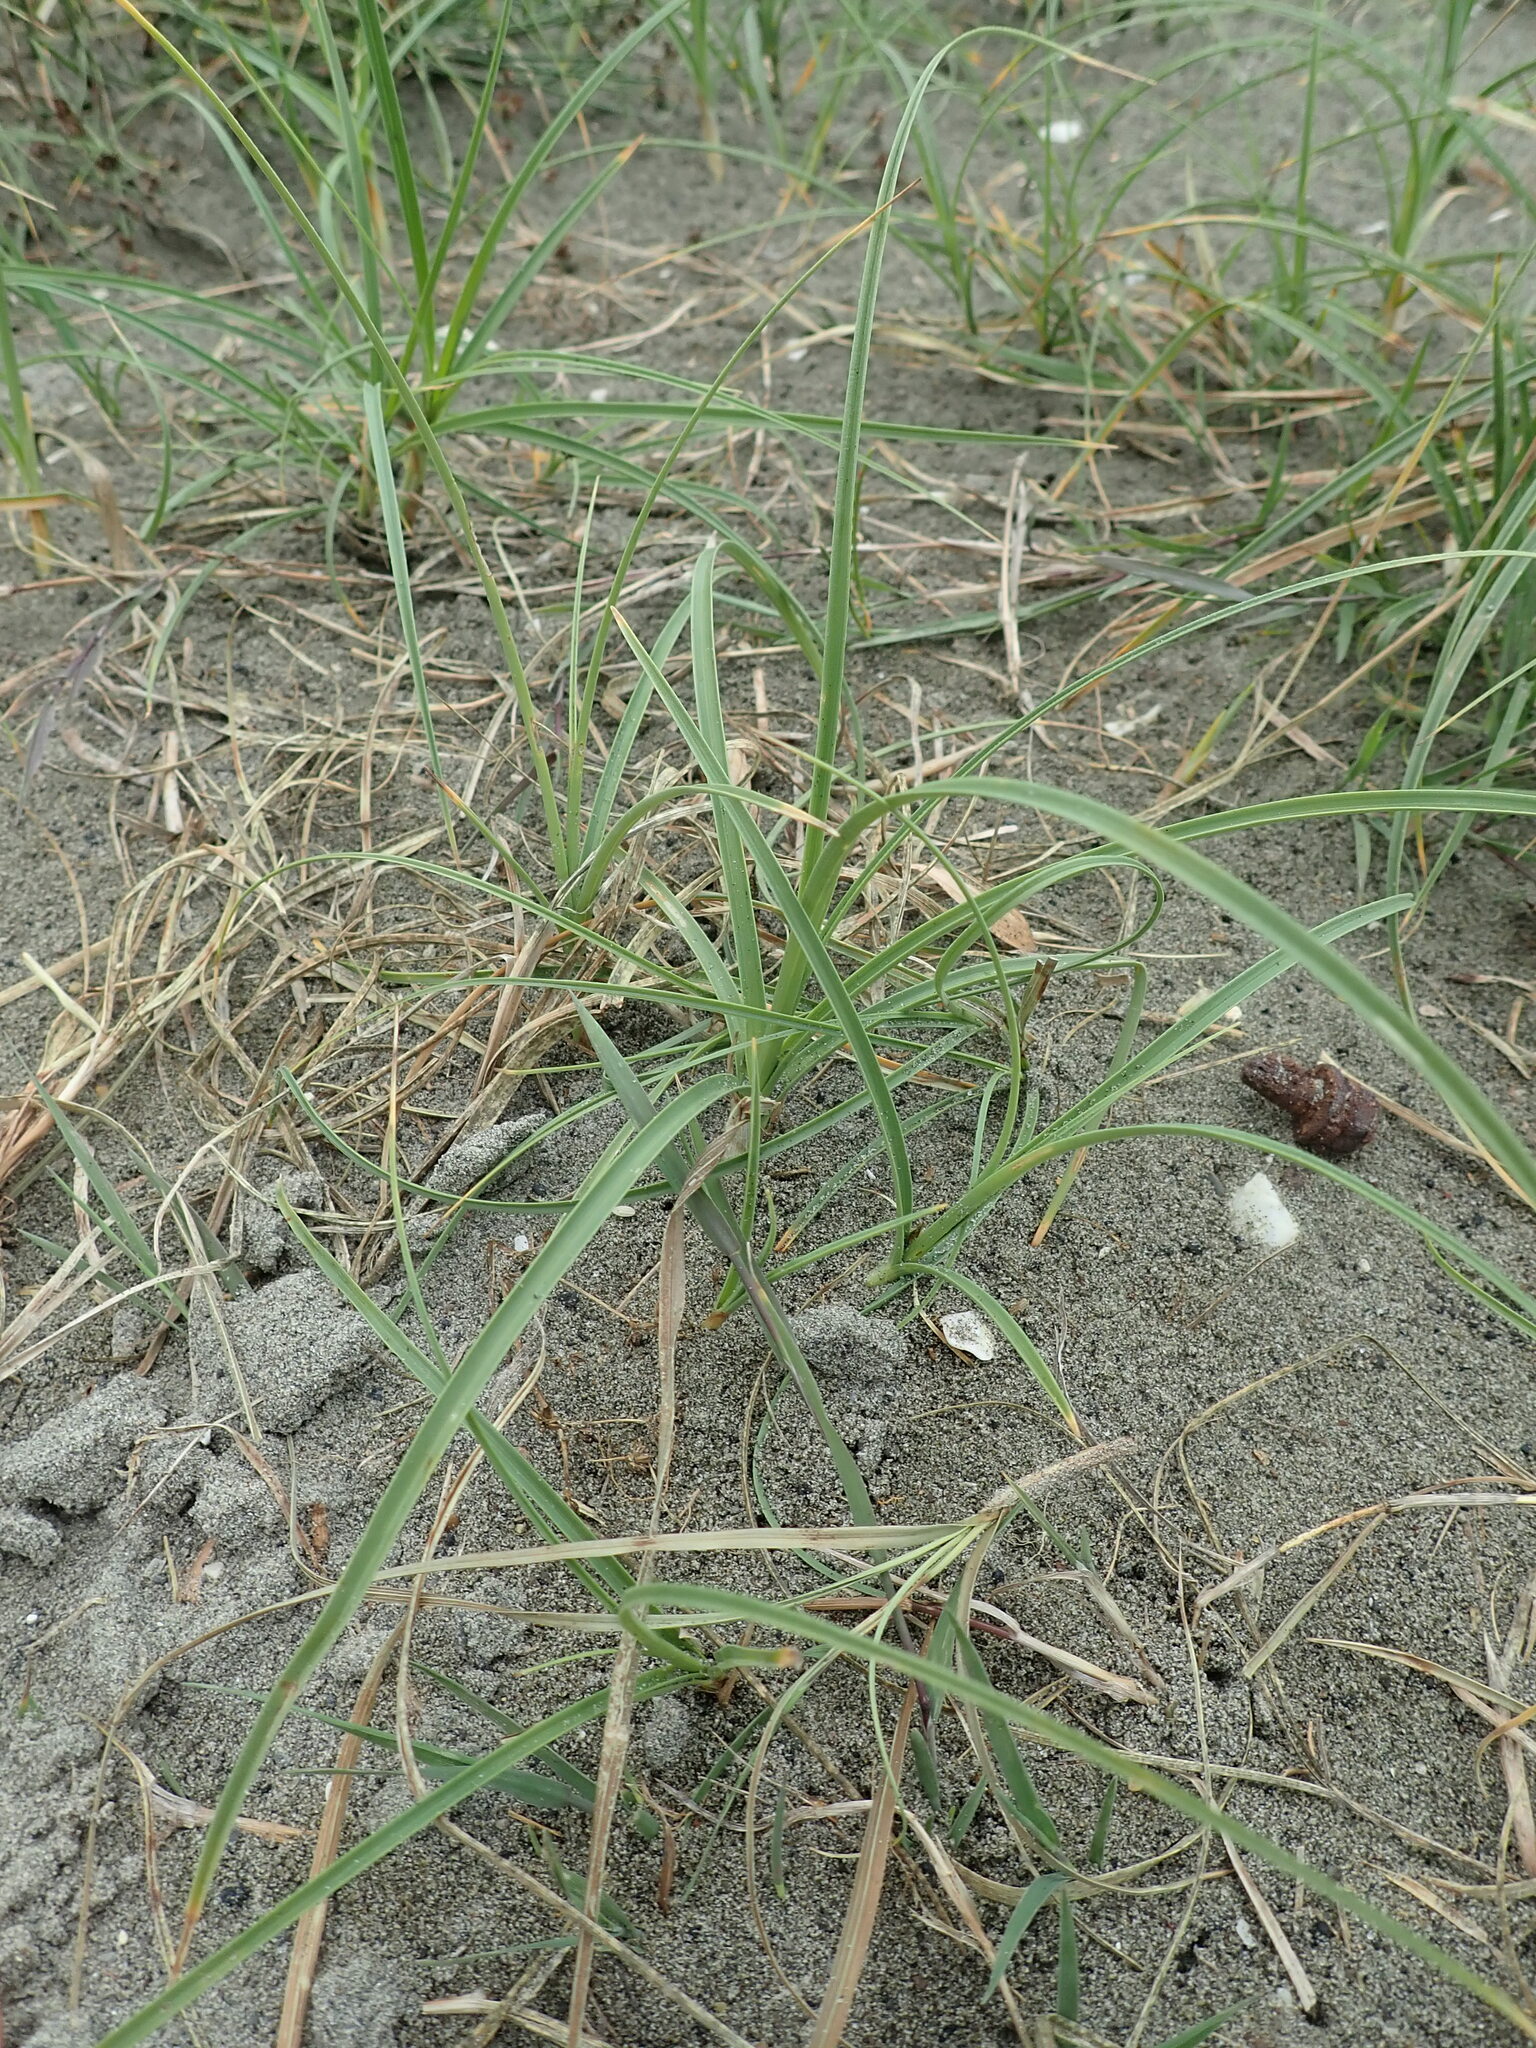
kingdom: Plantae
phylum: Tracheophyta
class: Liliopsida
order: Poales
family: Cyperaceae
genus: Carex
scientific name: Carex pumila
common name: Dwarf sedge
